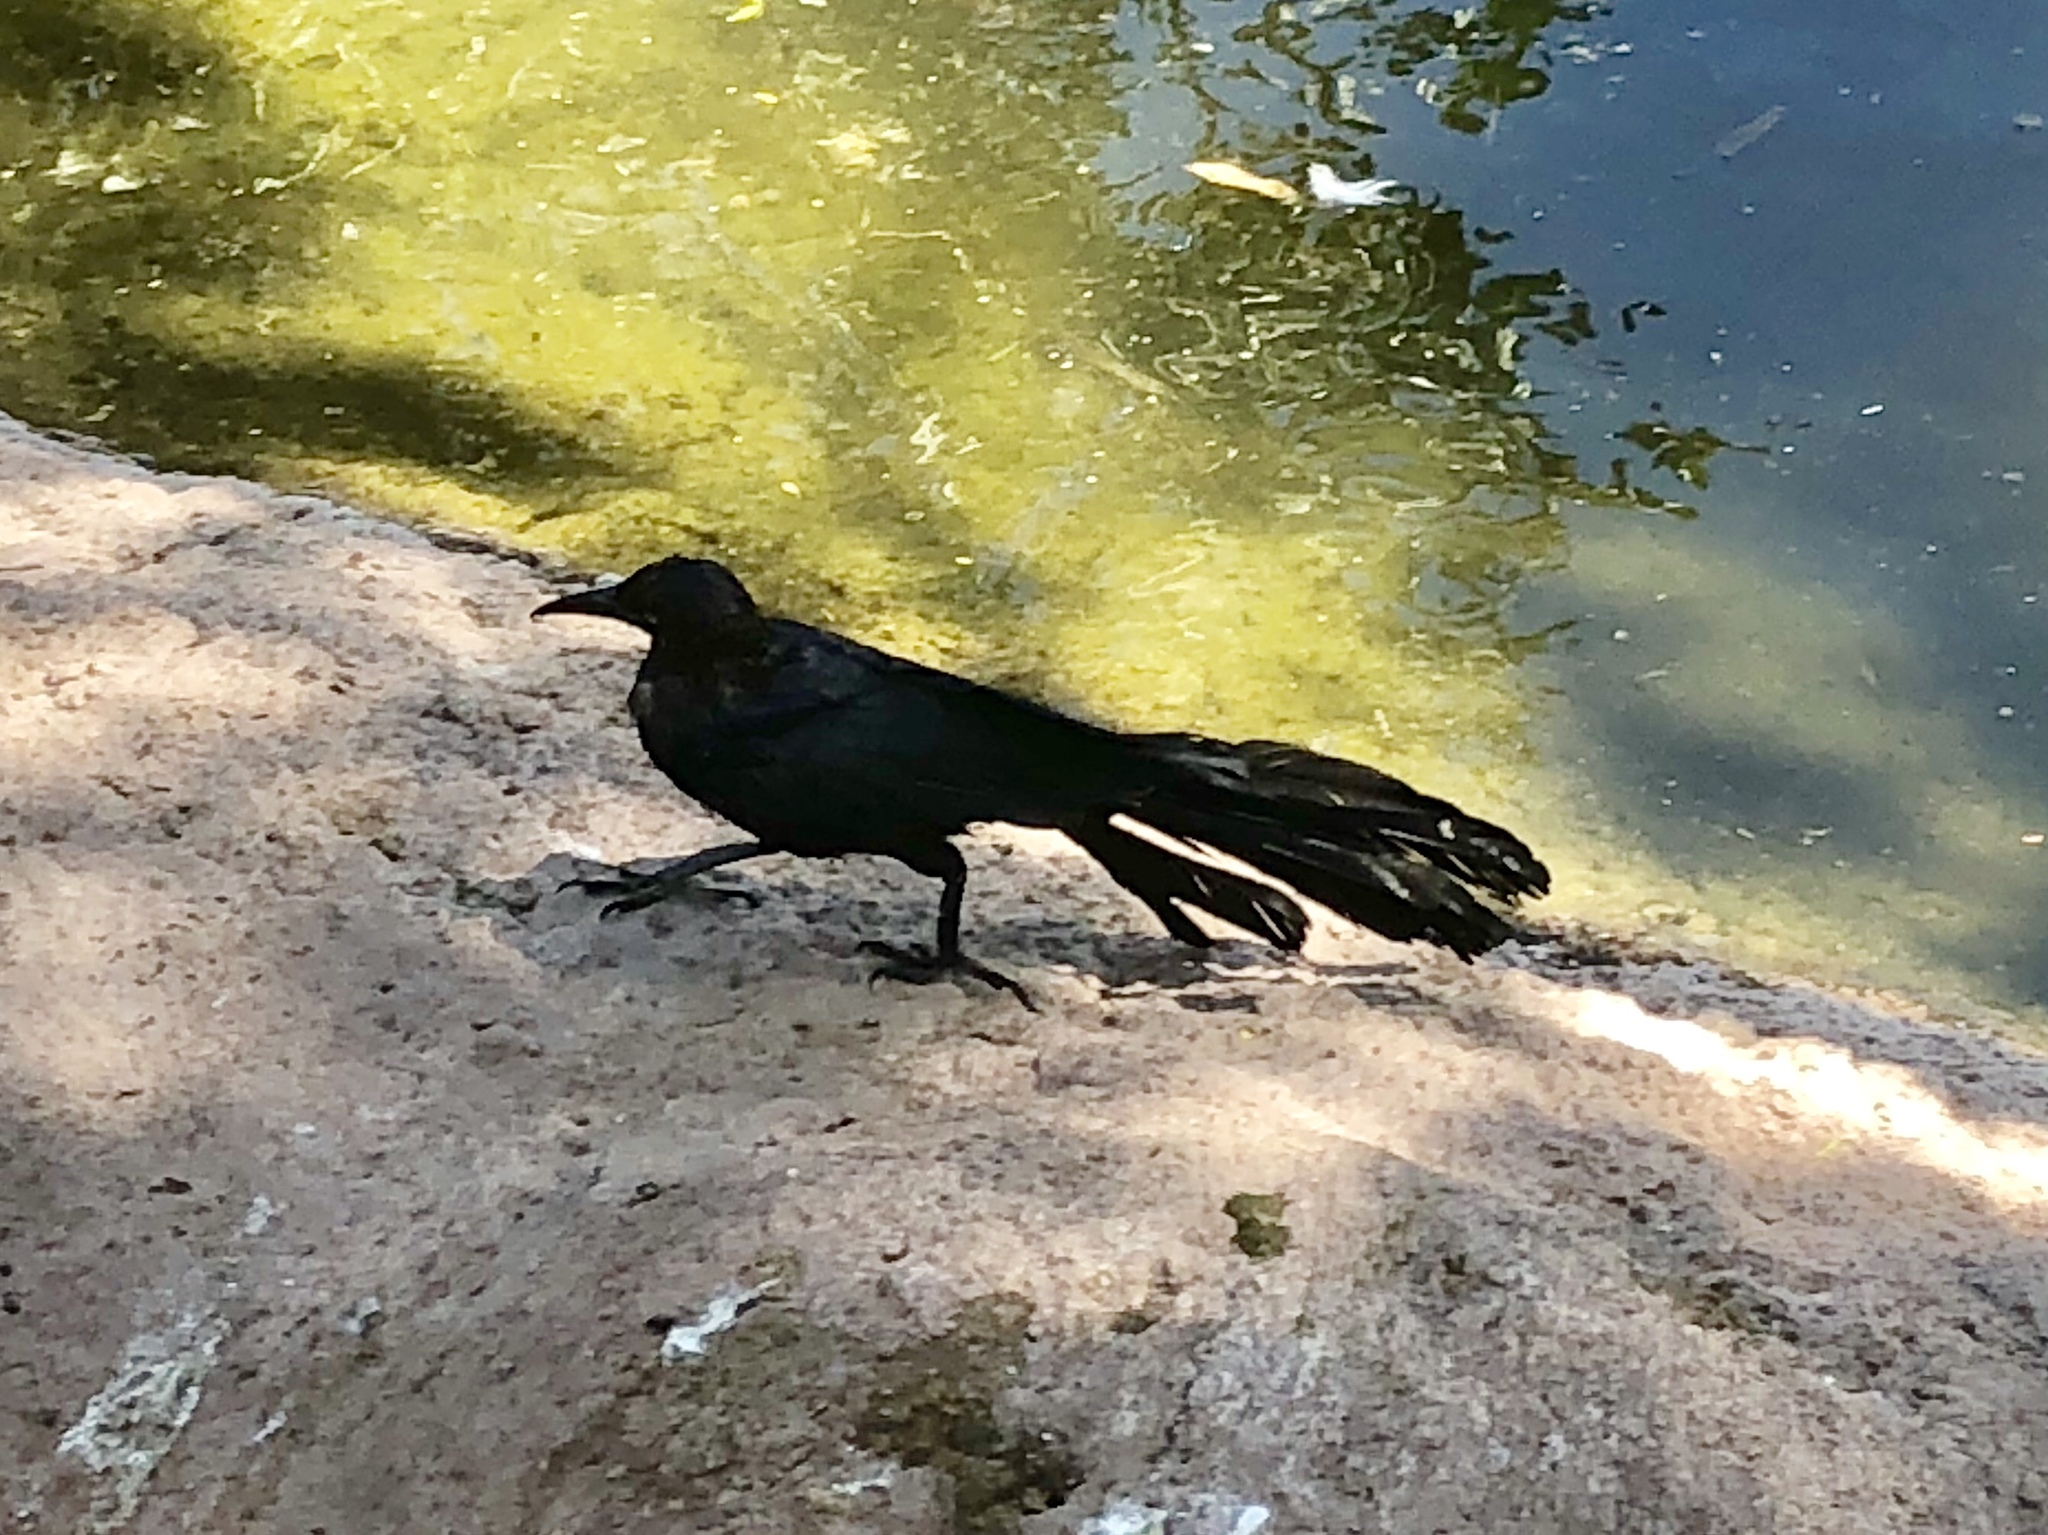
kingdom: Animalia
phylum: Chordata
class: Aves
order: Passeriformes
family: Icteridae
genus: Quiscalus
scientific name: Quiscalus mexicanus
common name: Great-tailed grackle
